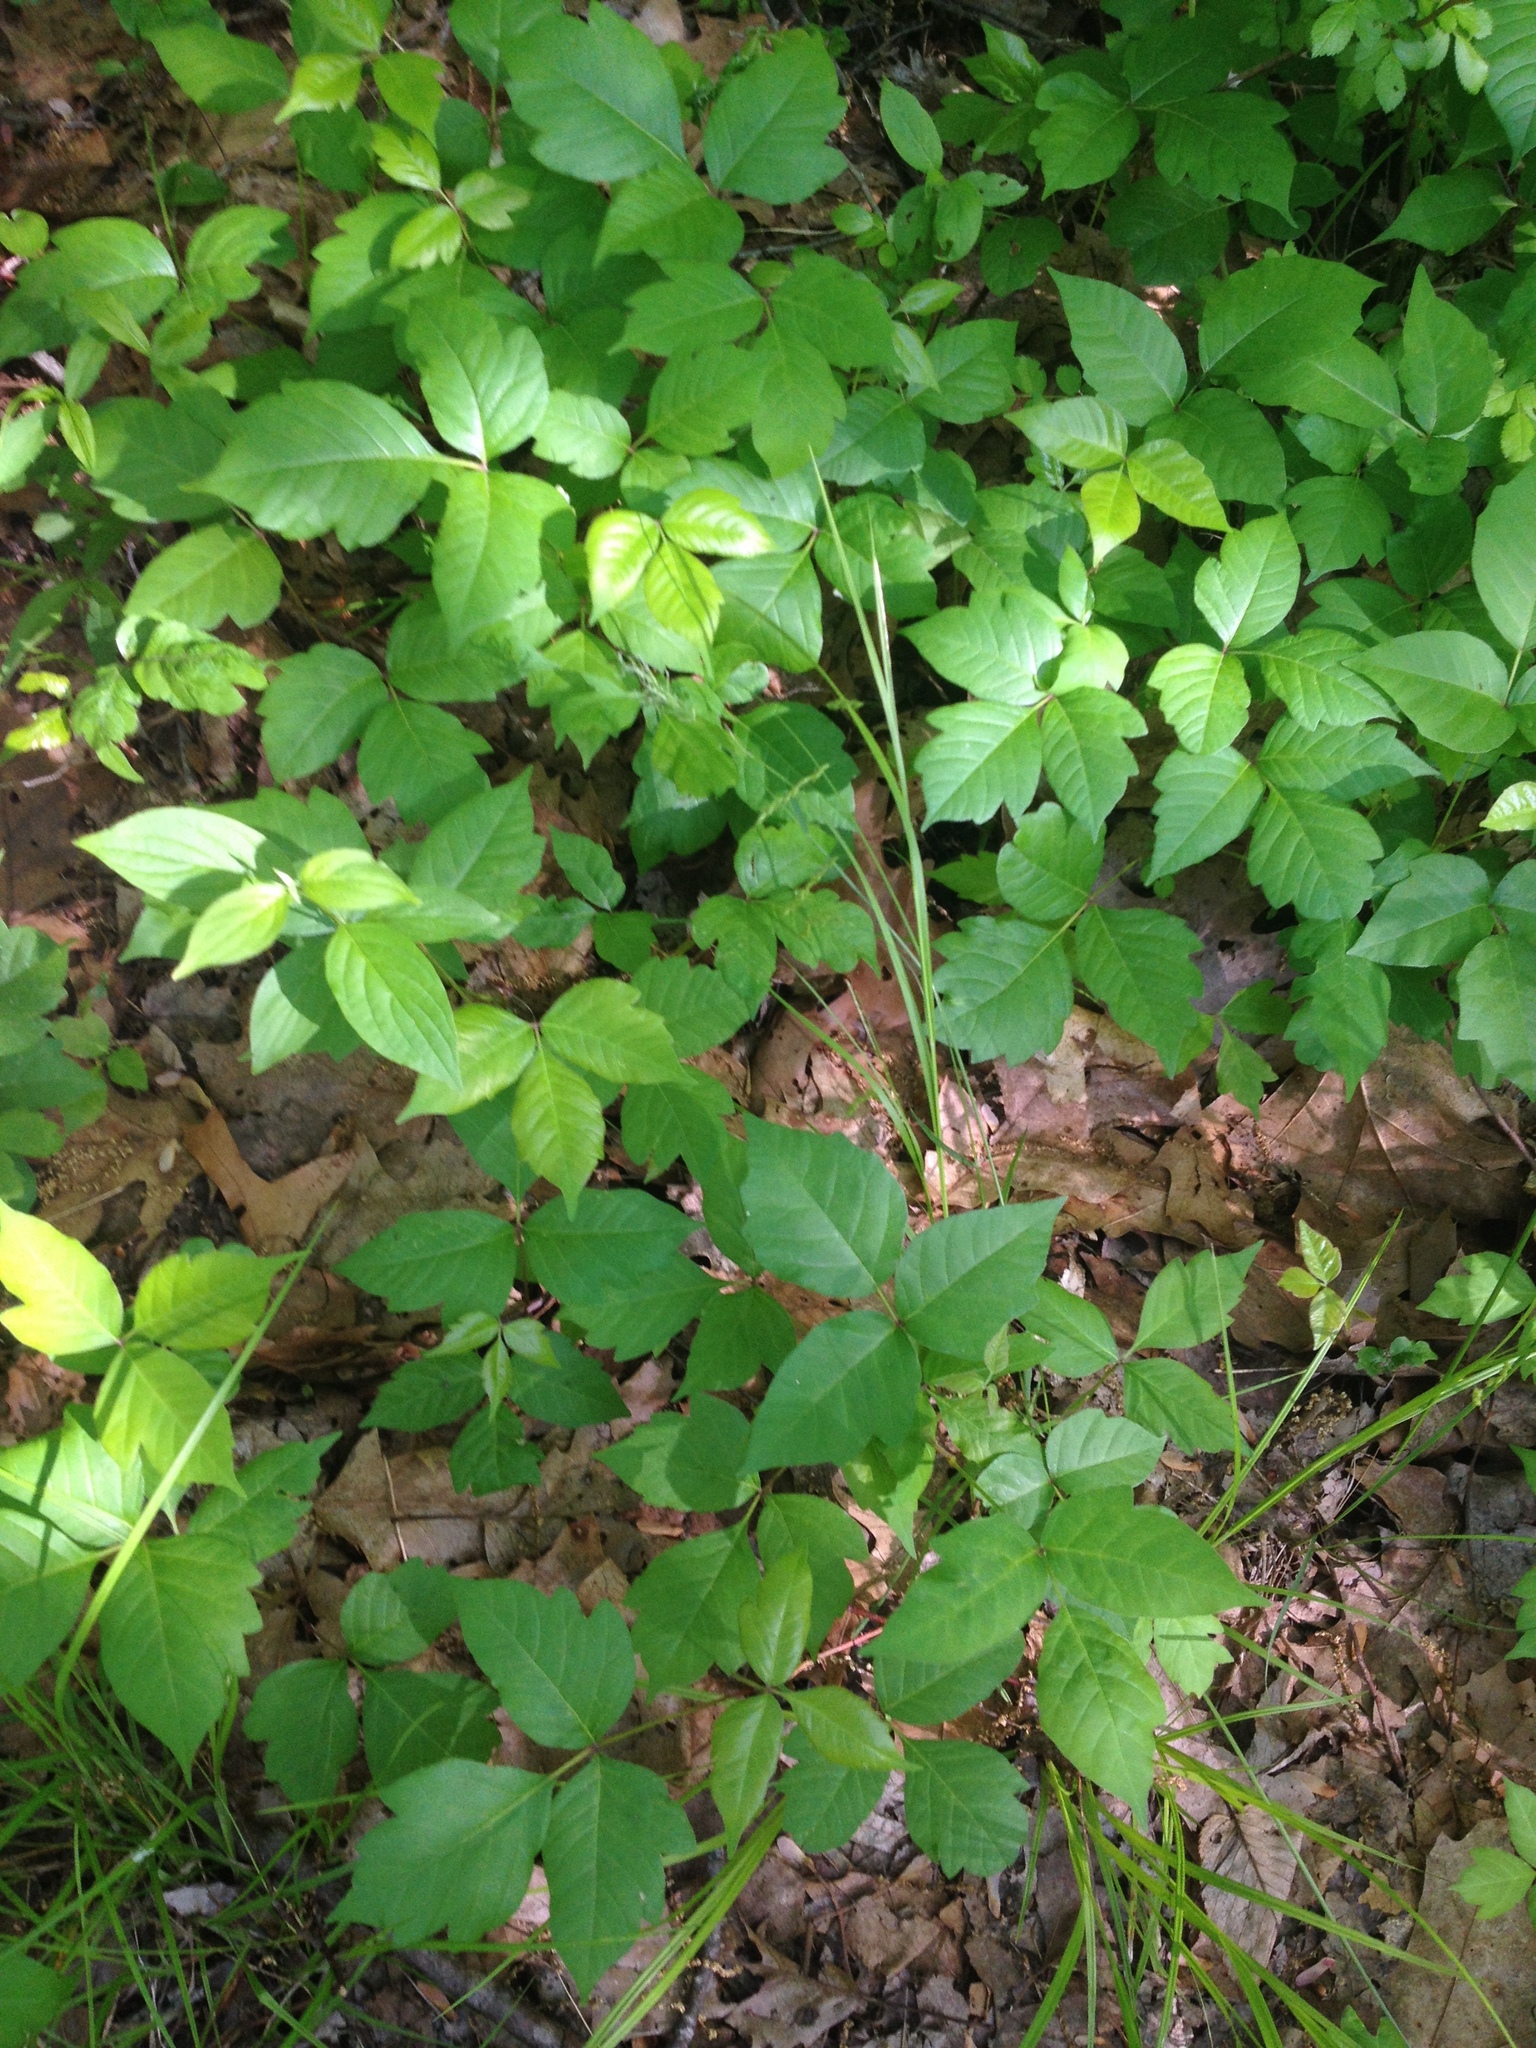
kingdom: Plantae
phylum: Tracheophyta
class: Magnoliopsida
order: Sapindales
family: Anacardiaceae
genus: Toxicodendron
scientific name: Toxicodendron radicans
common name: Poison ivy
